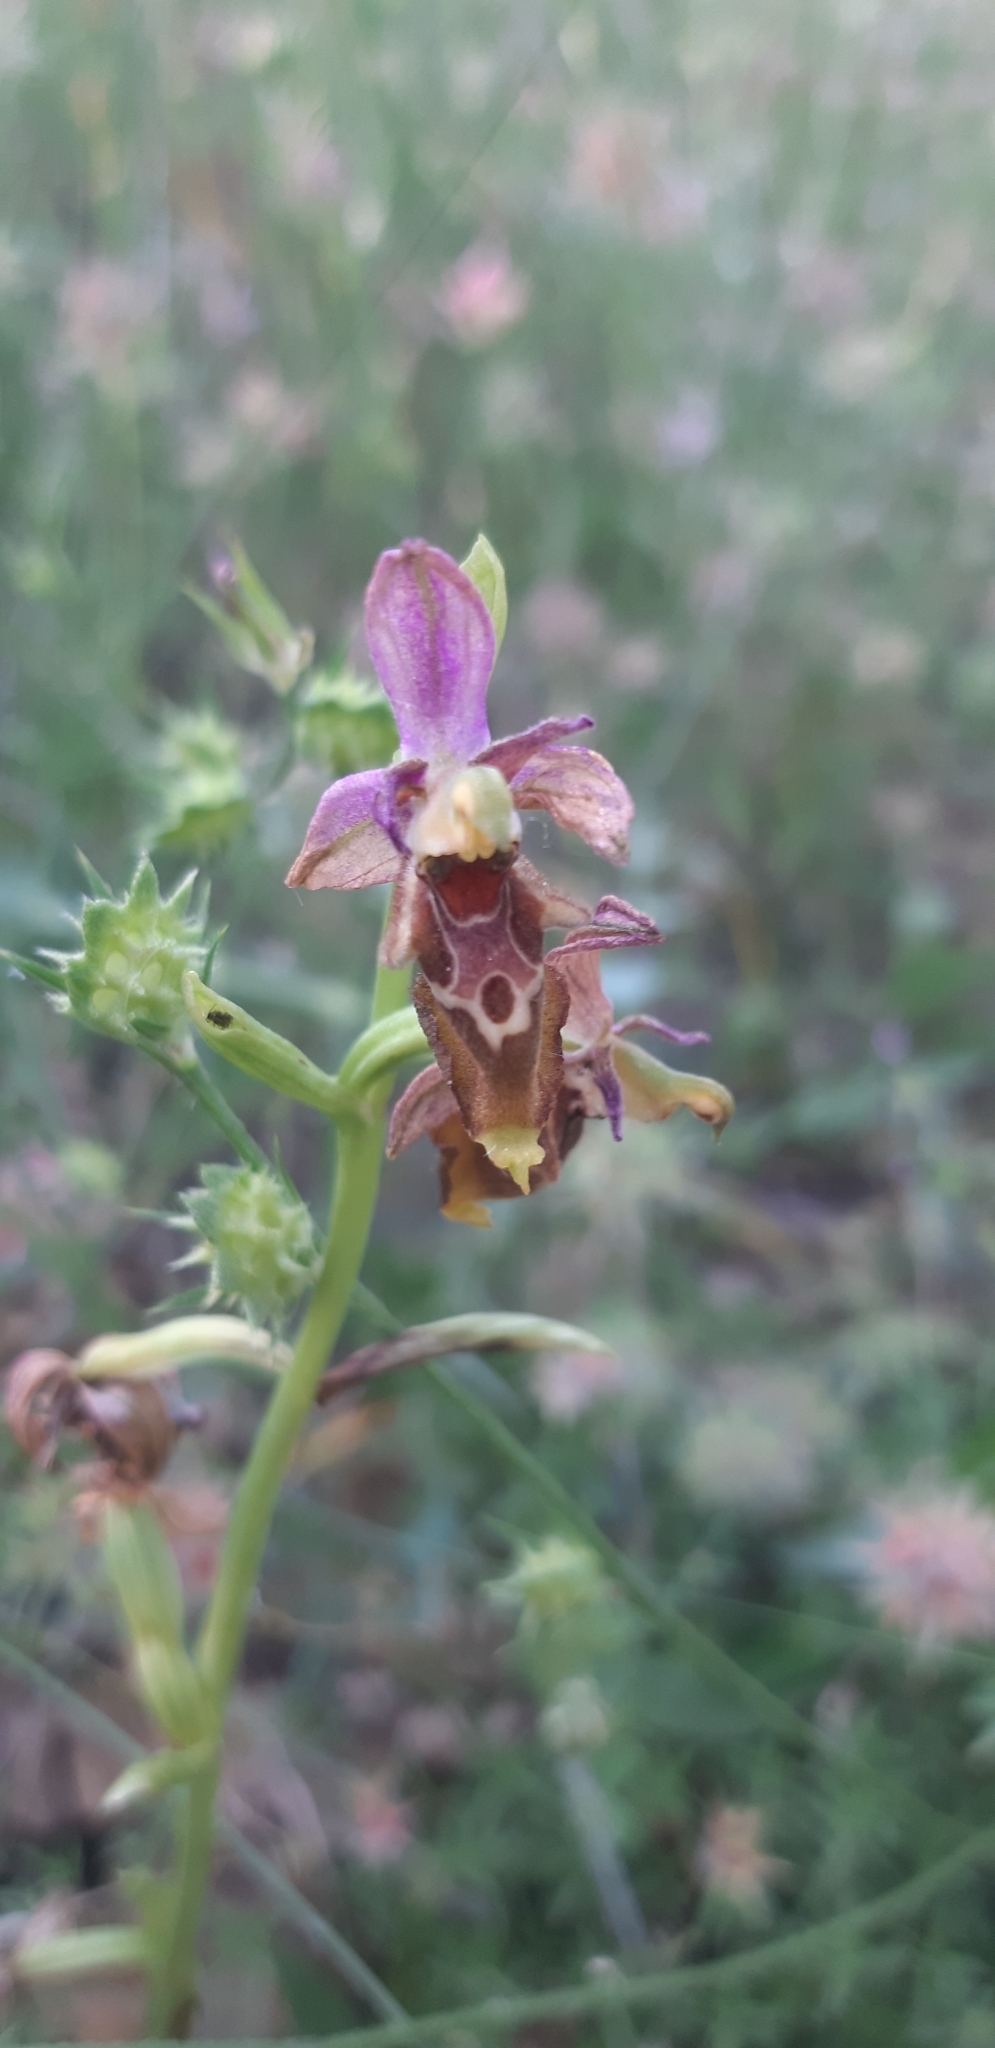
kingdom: Plantae
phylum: Tracheophyta
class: Liliopsida
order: Asparagales
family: Orchidaceae
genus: Ophrys
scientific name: Ophrys holosericea
